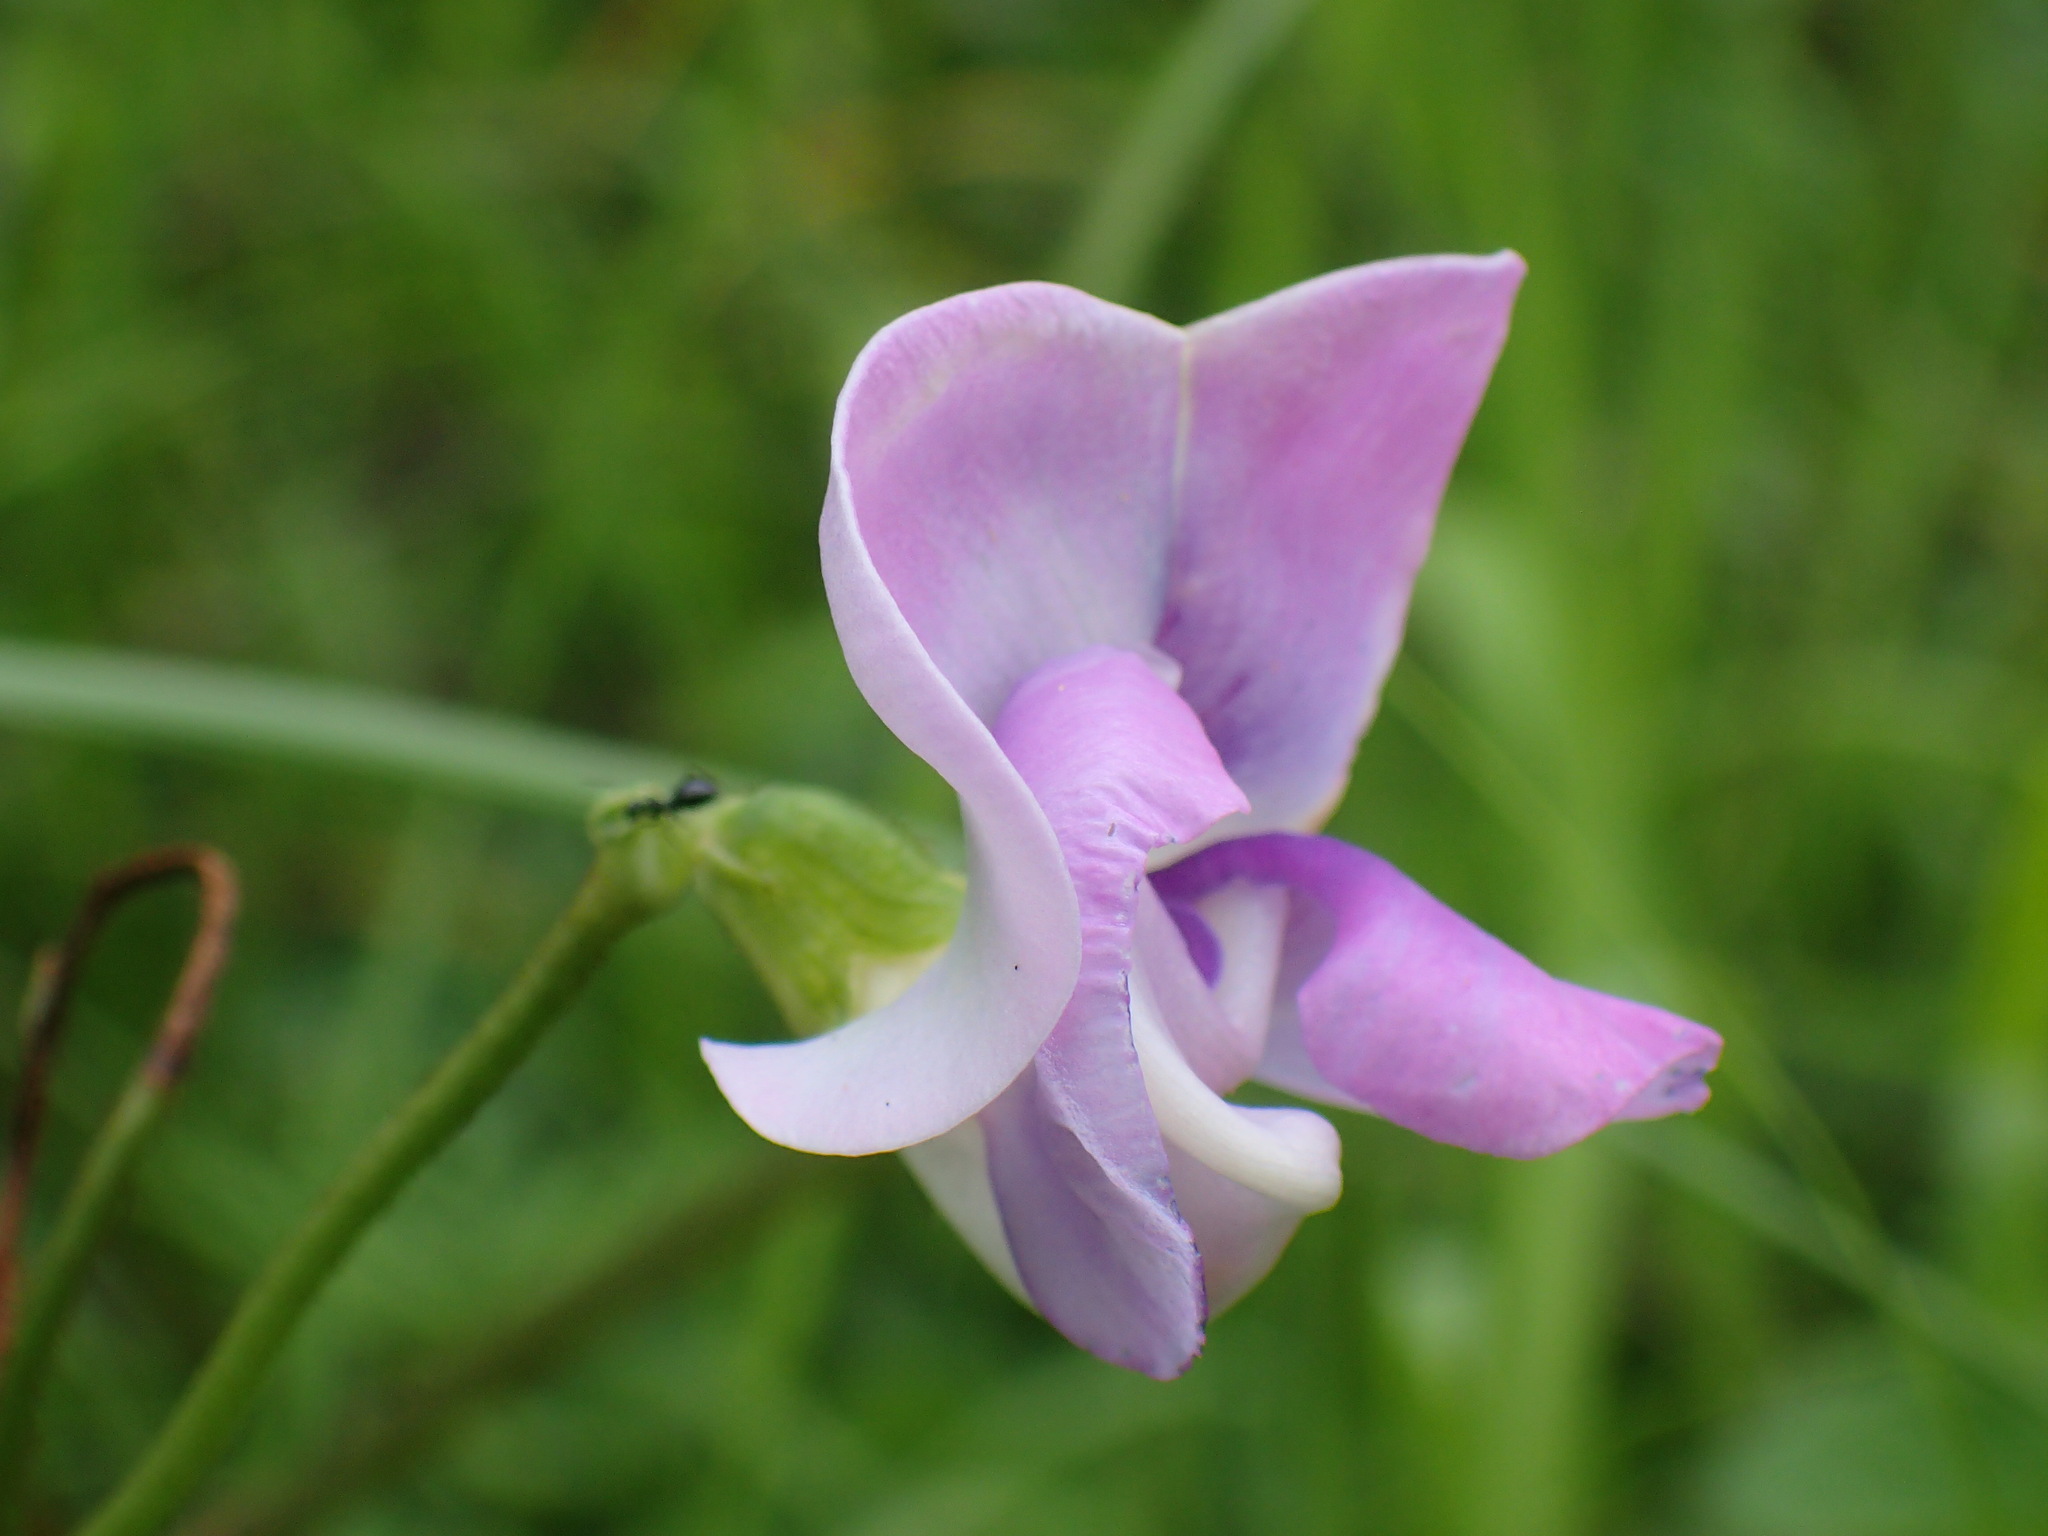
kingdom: Plantae
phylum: Tracheophyta
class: Magnoliopsida
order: Fabales
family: Fabaceae
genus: Vigna
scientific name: Vigna unguiculata
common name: Cowpea
